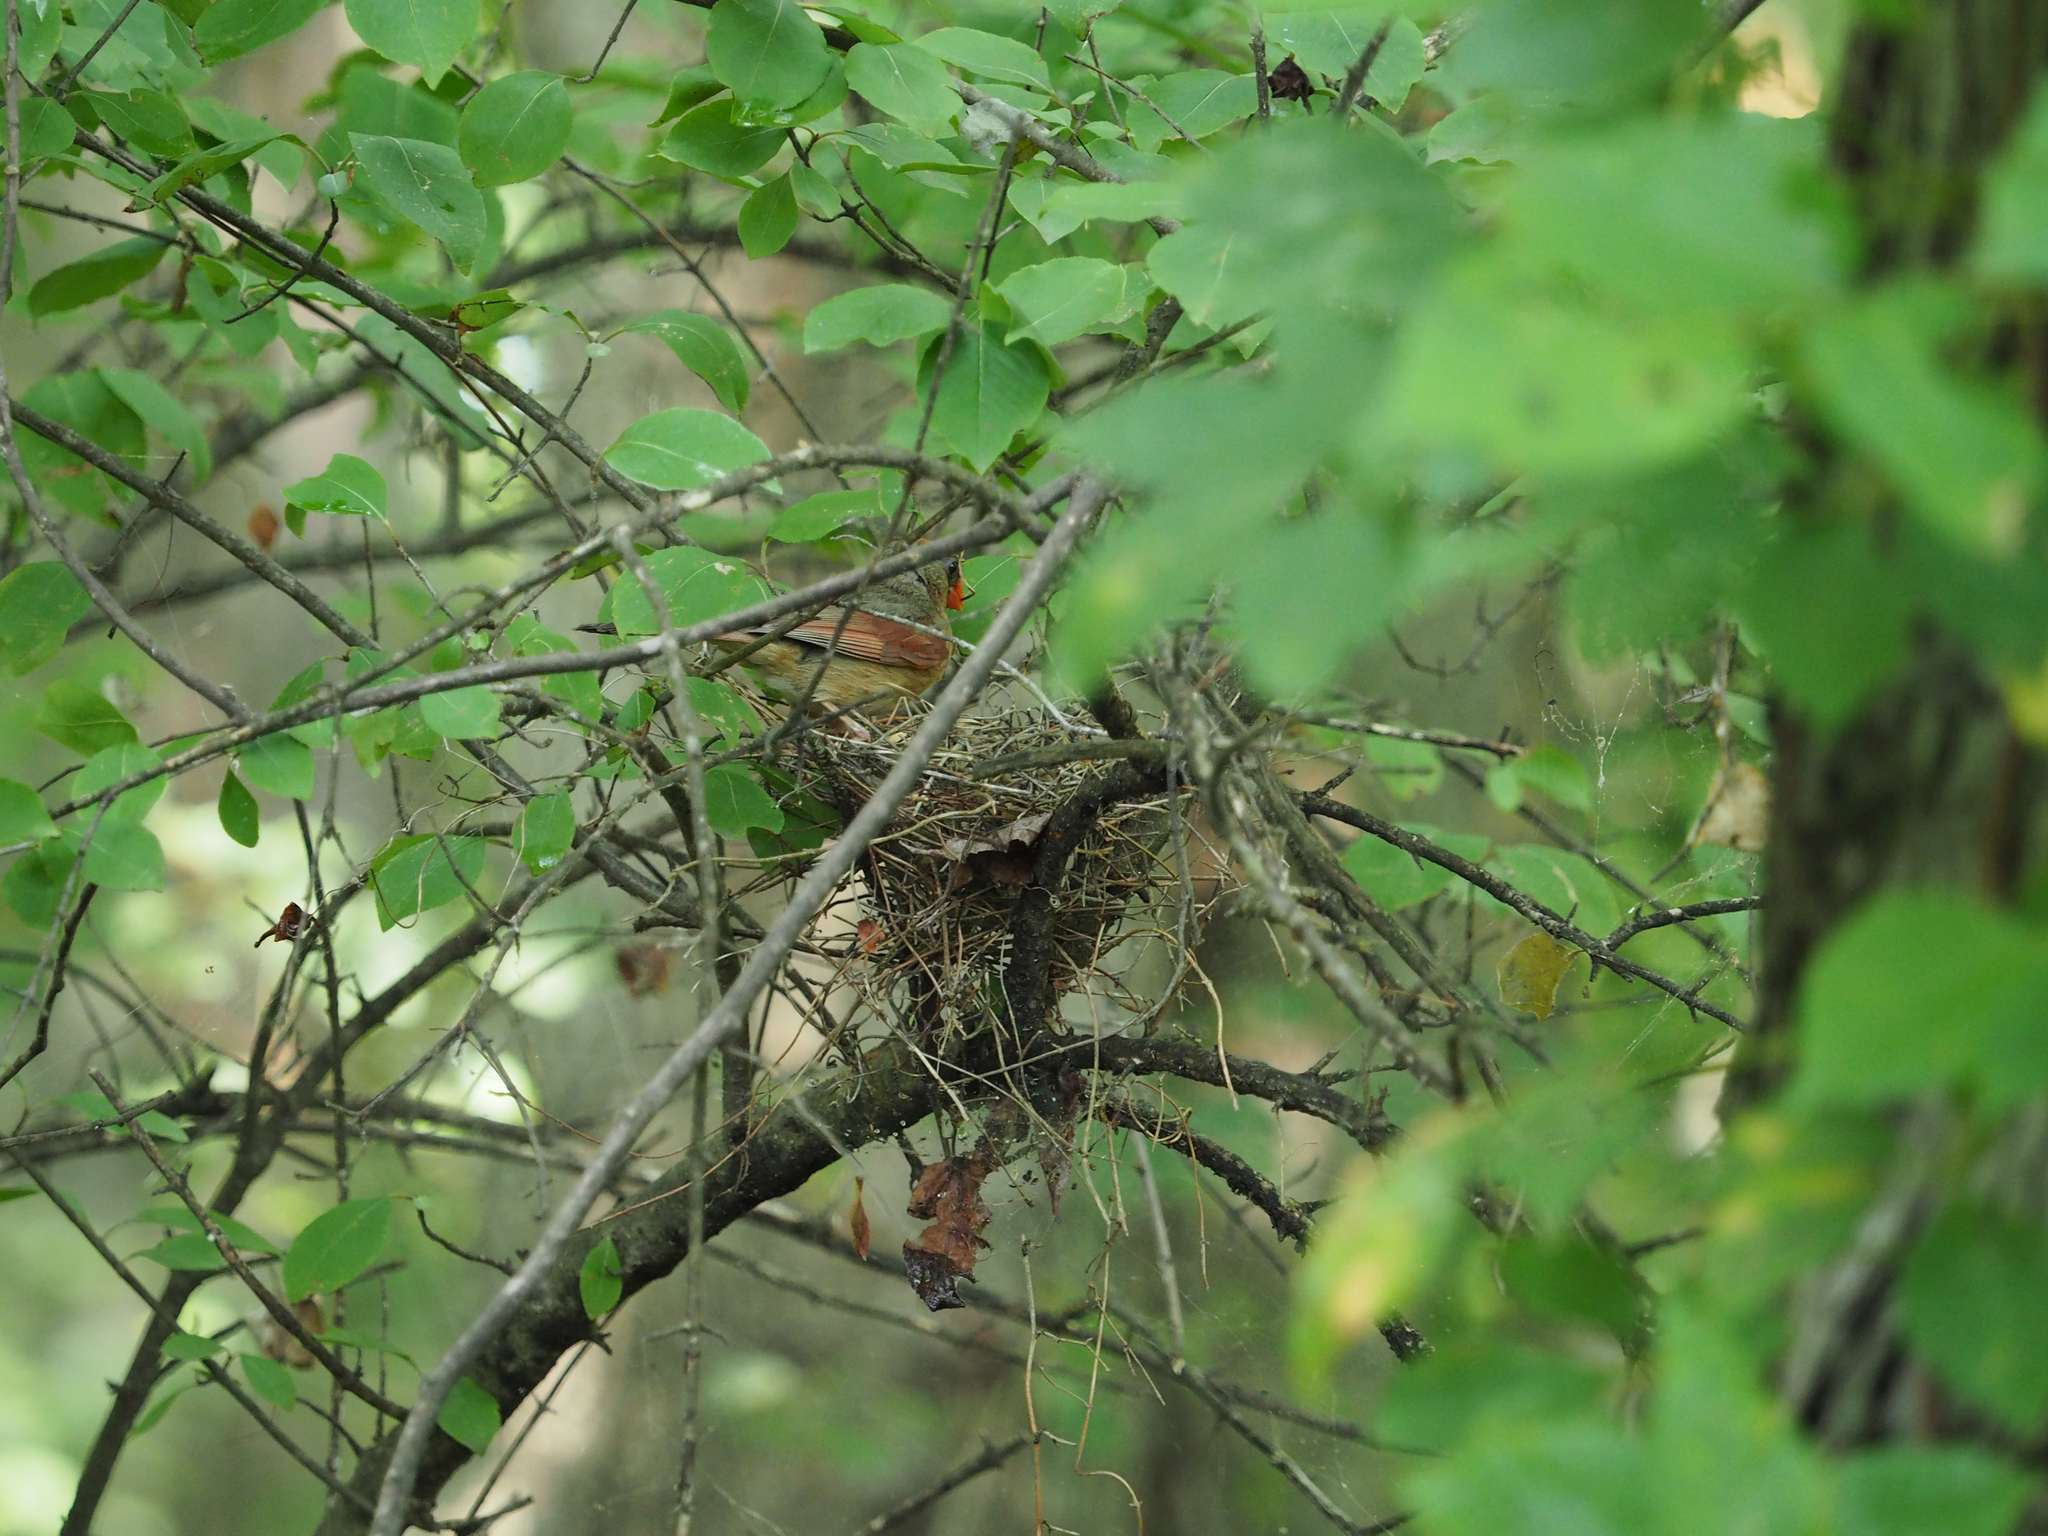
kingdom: Animalia
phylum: Chordata
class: Aves
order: Passeriformes
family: Cardinalidae
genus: Cardinalis
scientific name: Cardinalis cardinalis
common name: Northern cardinal
